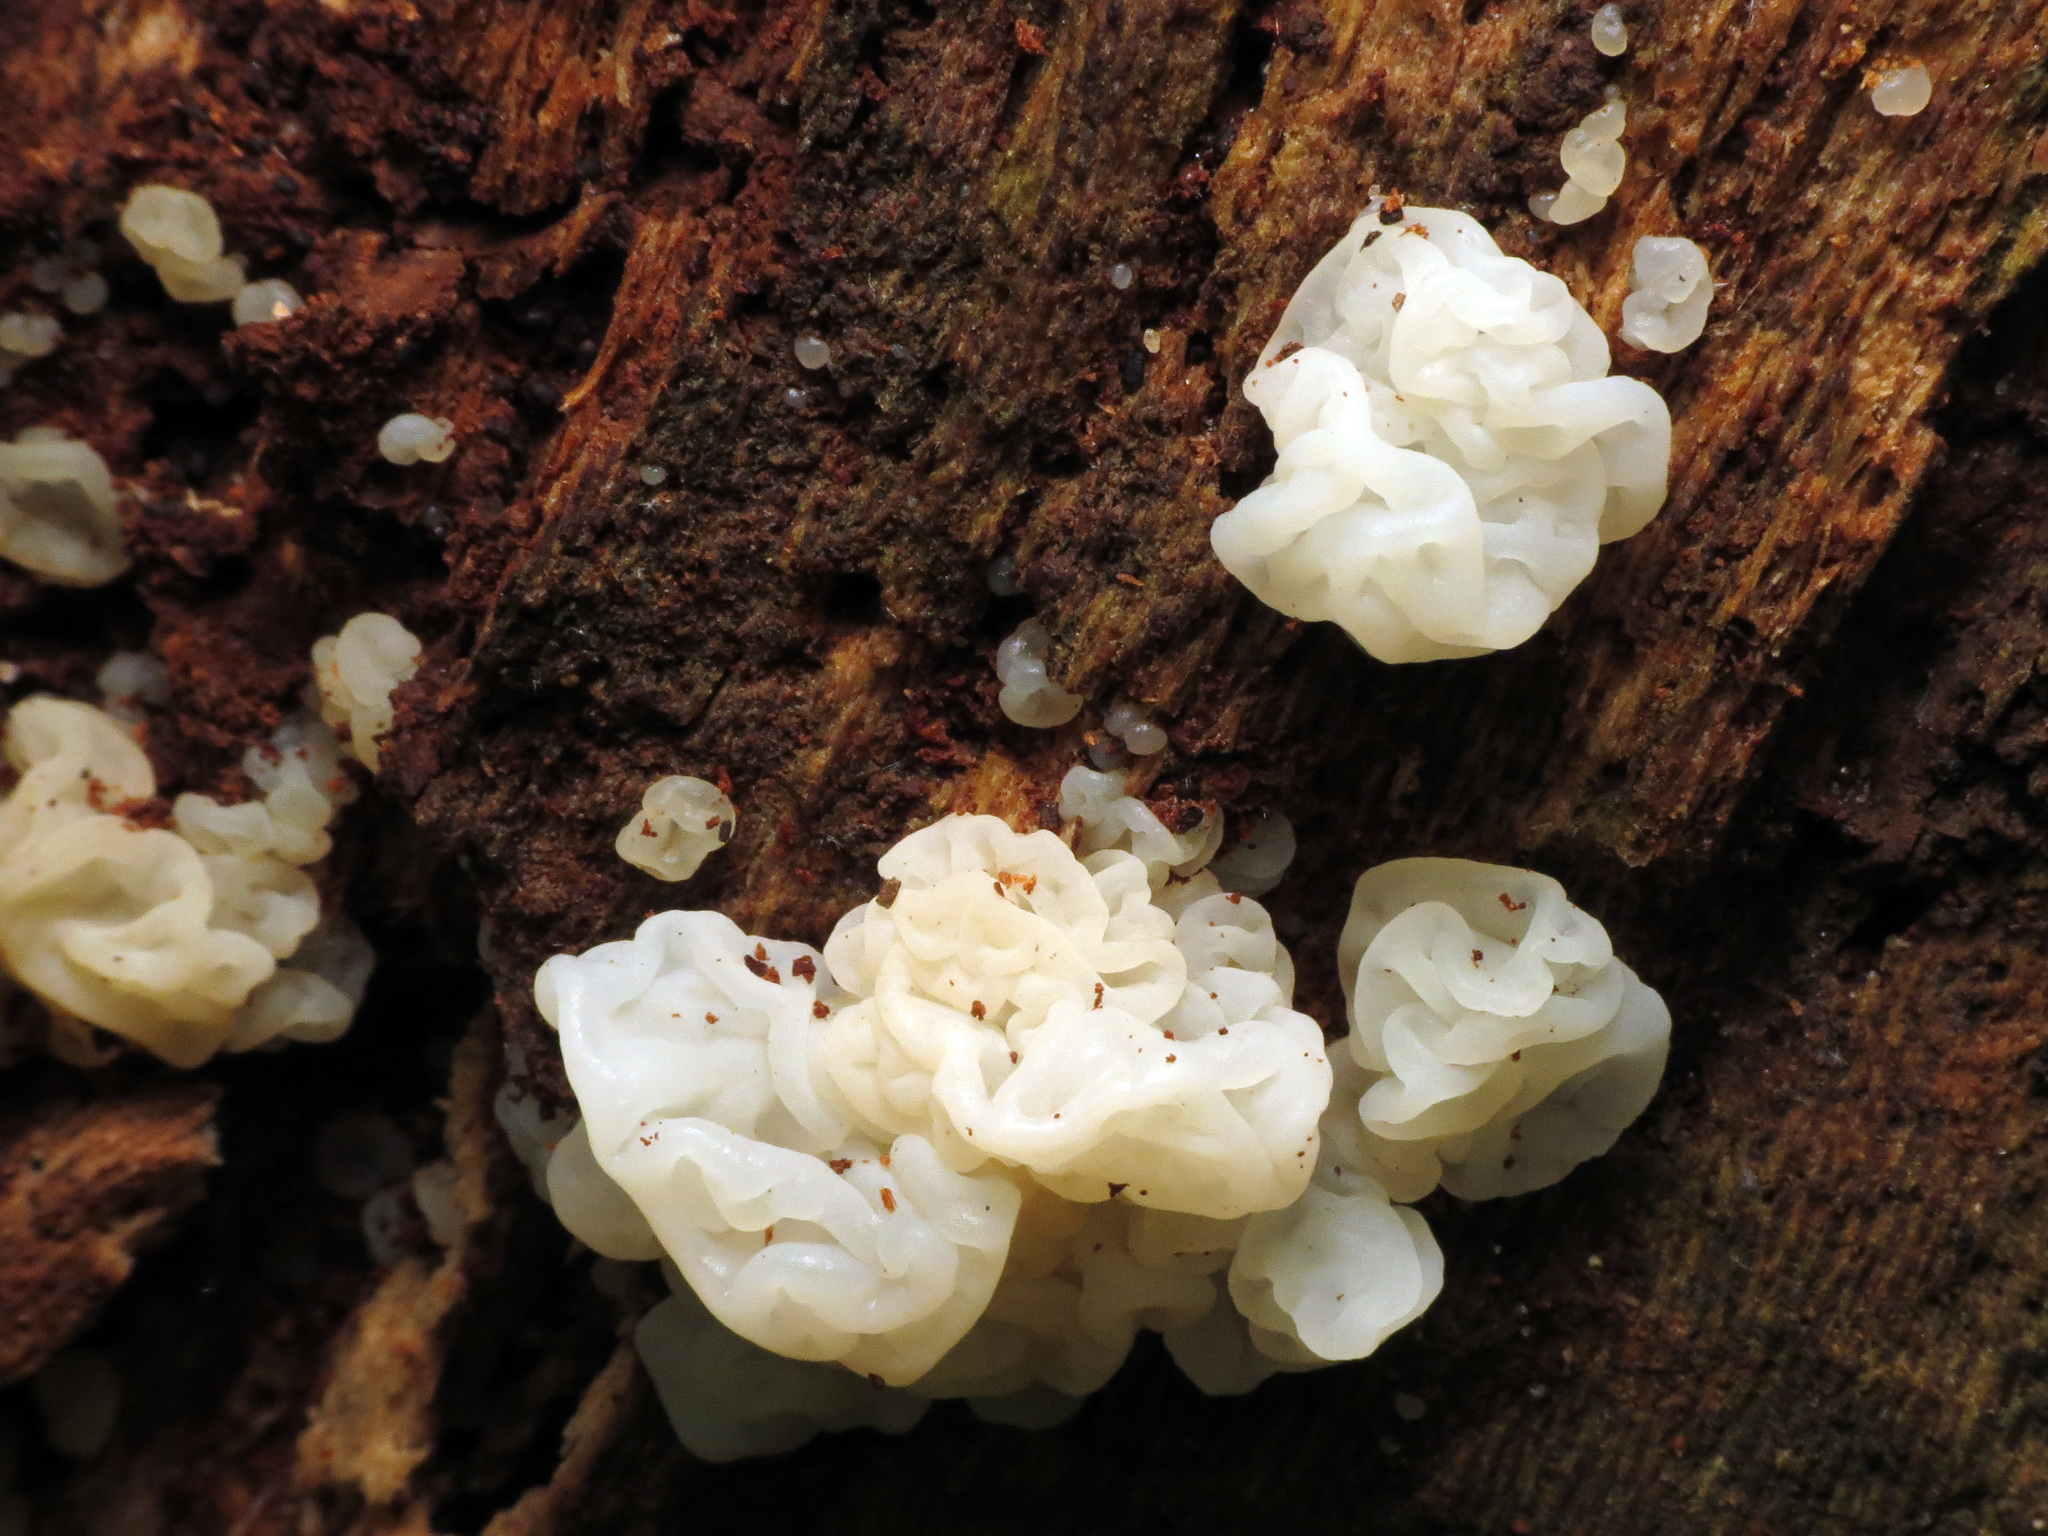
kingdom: Fungi
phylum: Basidiomycota
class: Agaricomycetes
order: Auriculariales
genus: Ductifera
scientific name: Ductifera pululahuana
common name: White jelly fungus
